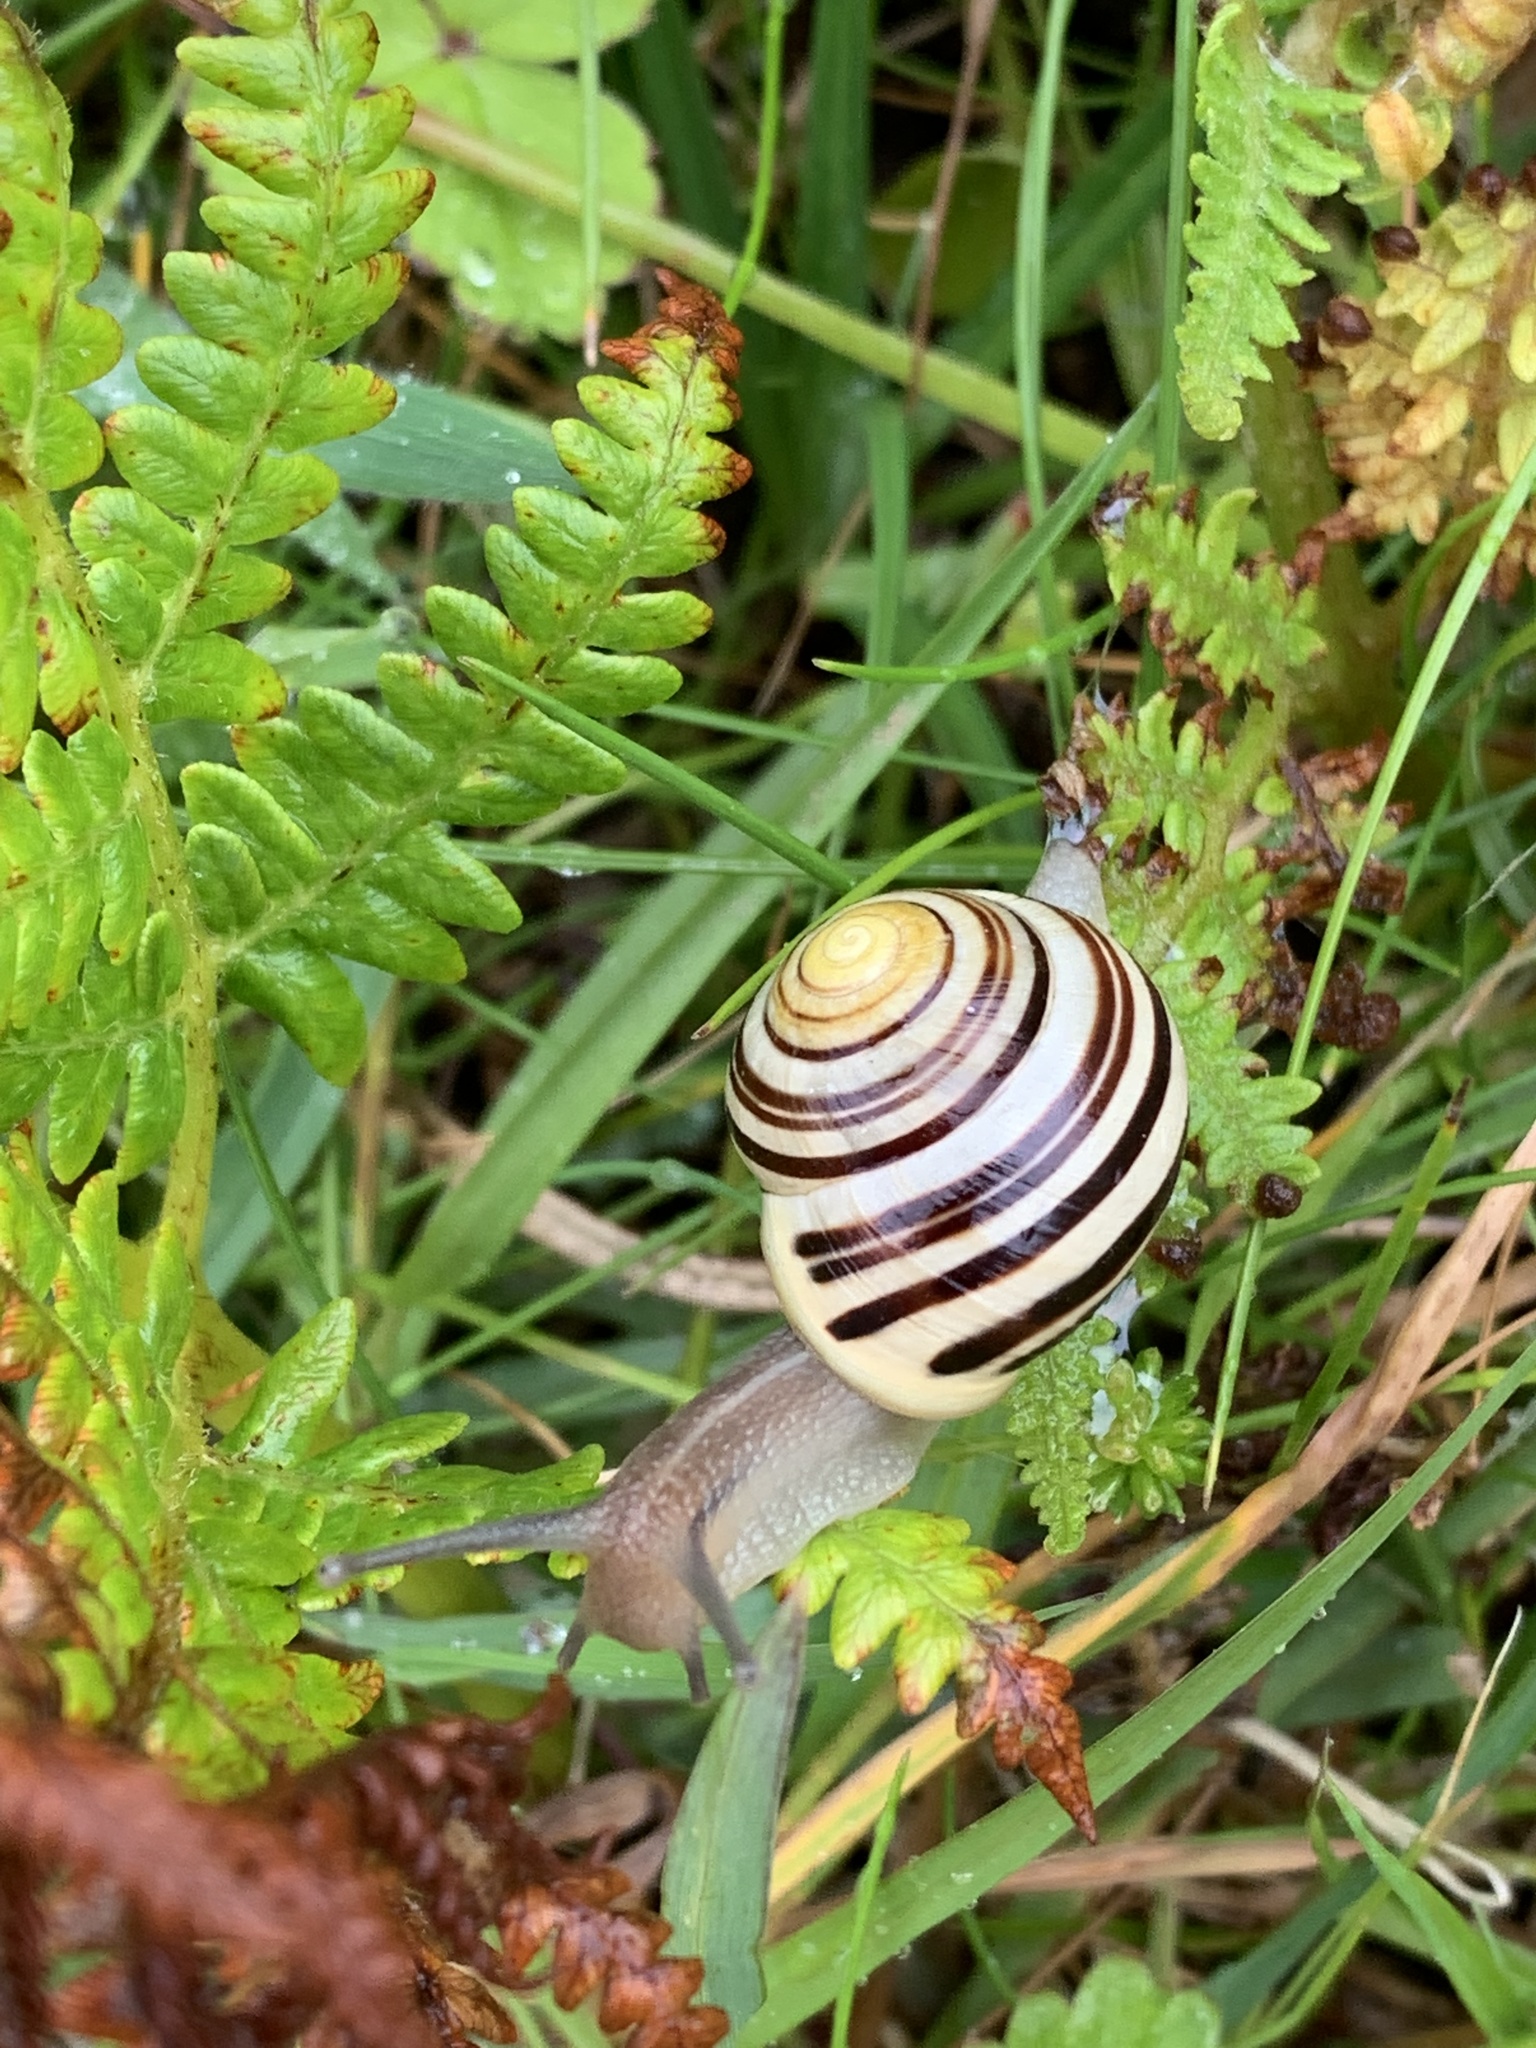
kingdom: Animalia
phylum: Mollusca
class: Gastropoda
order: Stylommatophora
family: Helicidae
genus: Cepaea
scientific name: Cepaea hortensis
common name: White-lip gardensnail
